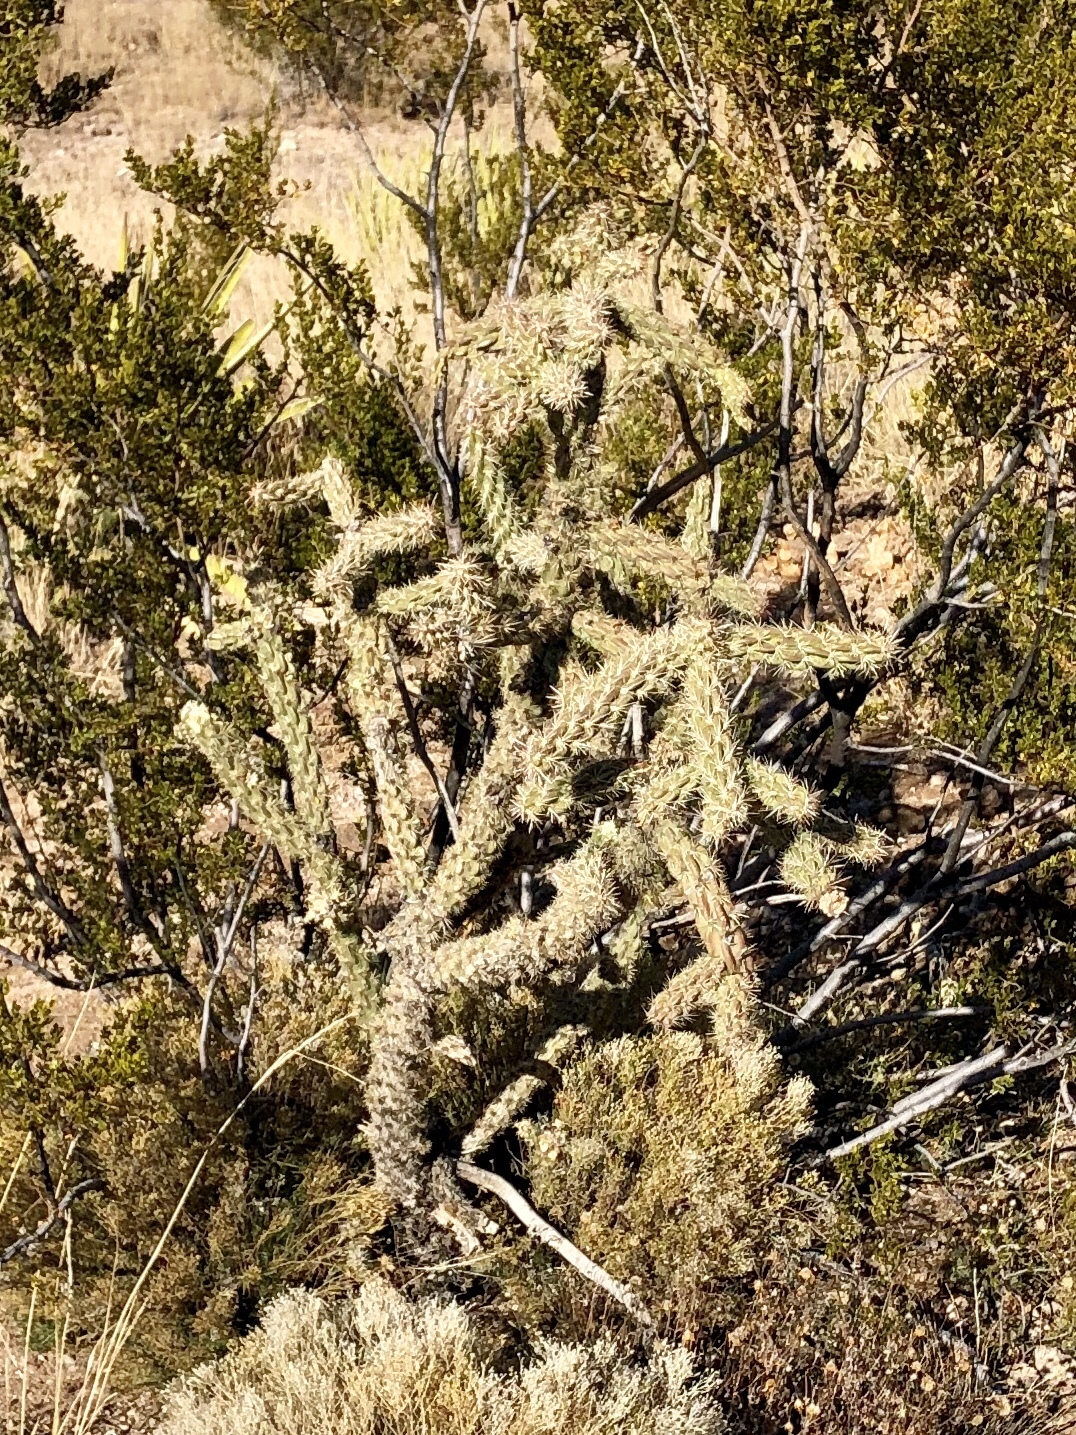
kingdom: Plantae
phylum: Tracheophyta
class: Magnoliopsida
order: Caryophyllales
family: Cactaceae
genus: Cylindropuntia
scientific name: Cylindropuntia imbricata
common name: Candelabrum cactus
